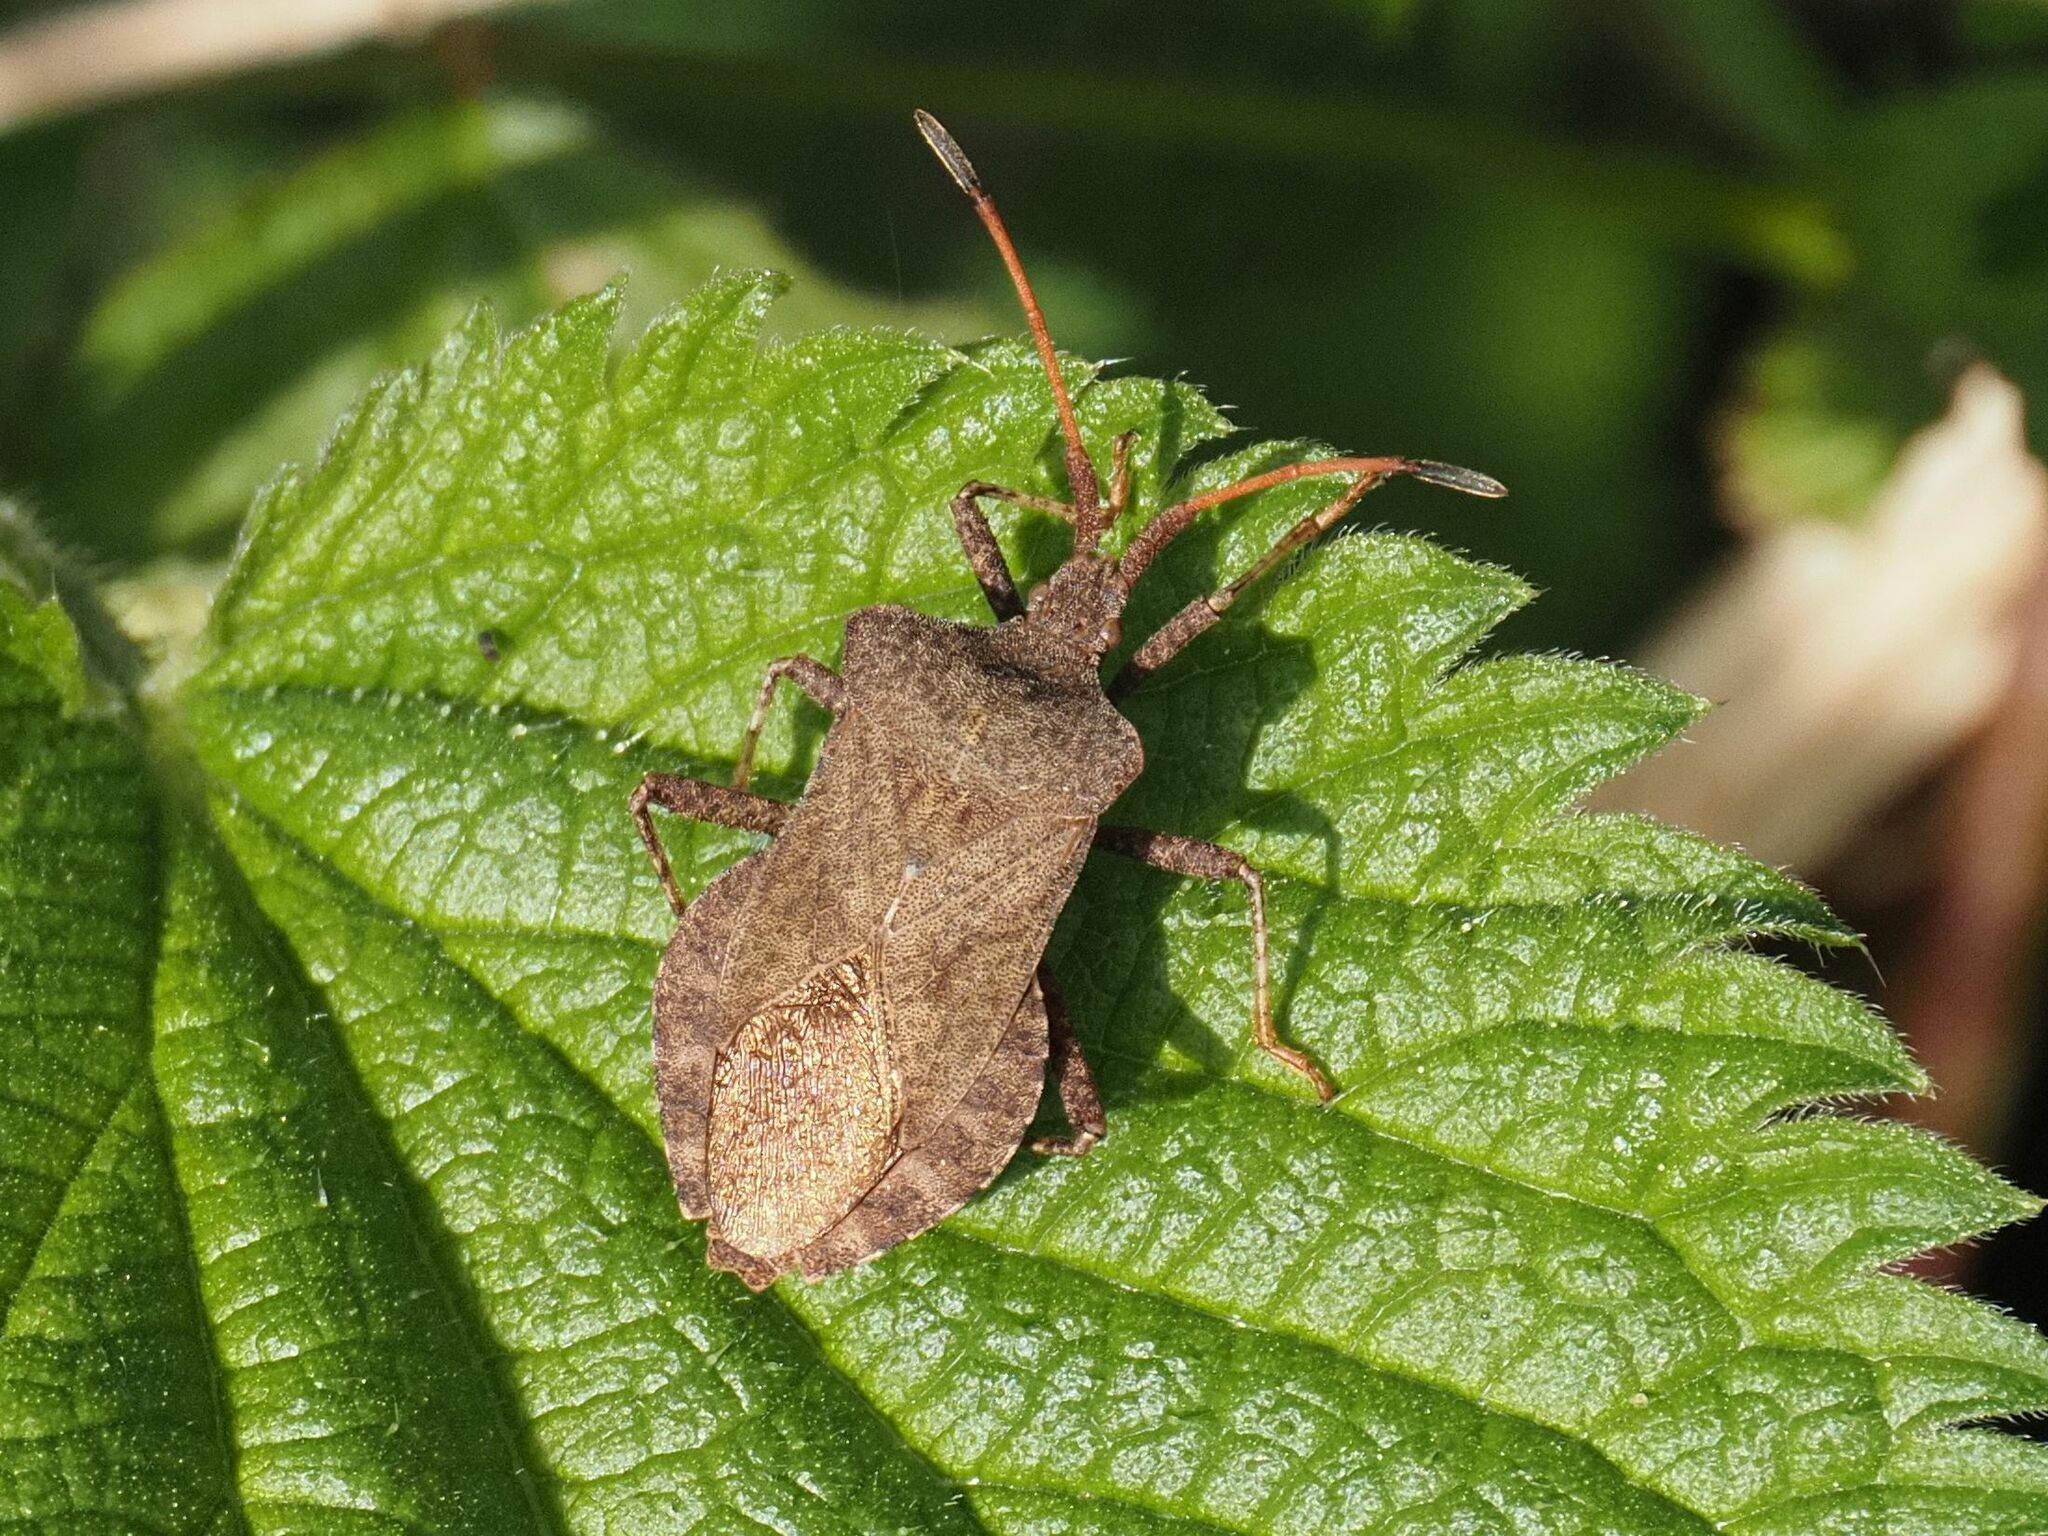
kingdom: Animalia
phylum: Arthropoda
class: Insecta
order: Hemiptera
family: Coreidae
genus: Coreus
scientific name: Coreus marginatus
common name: Dock bug
